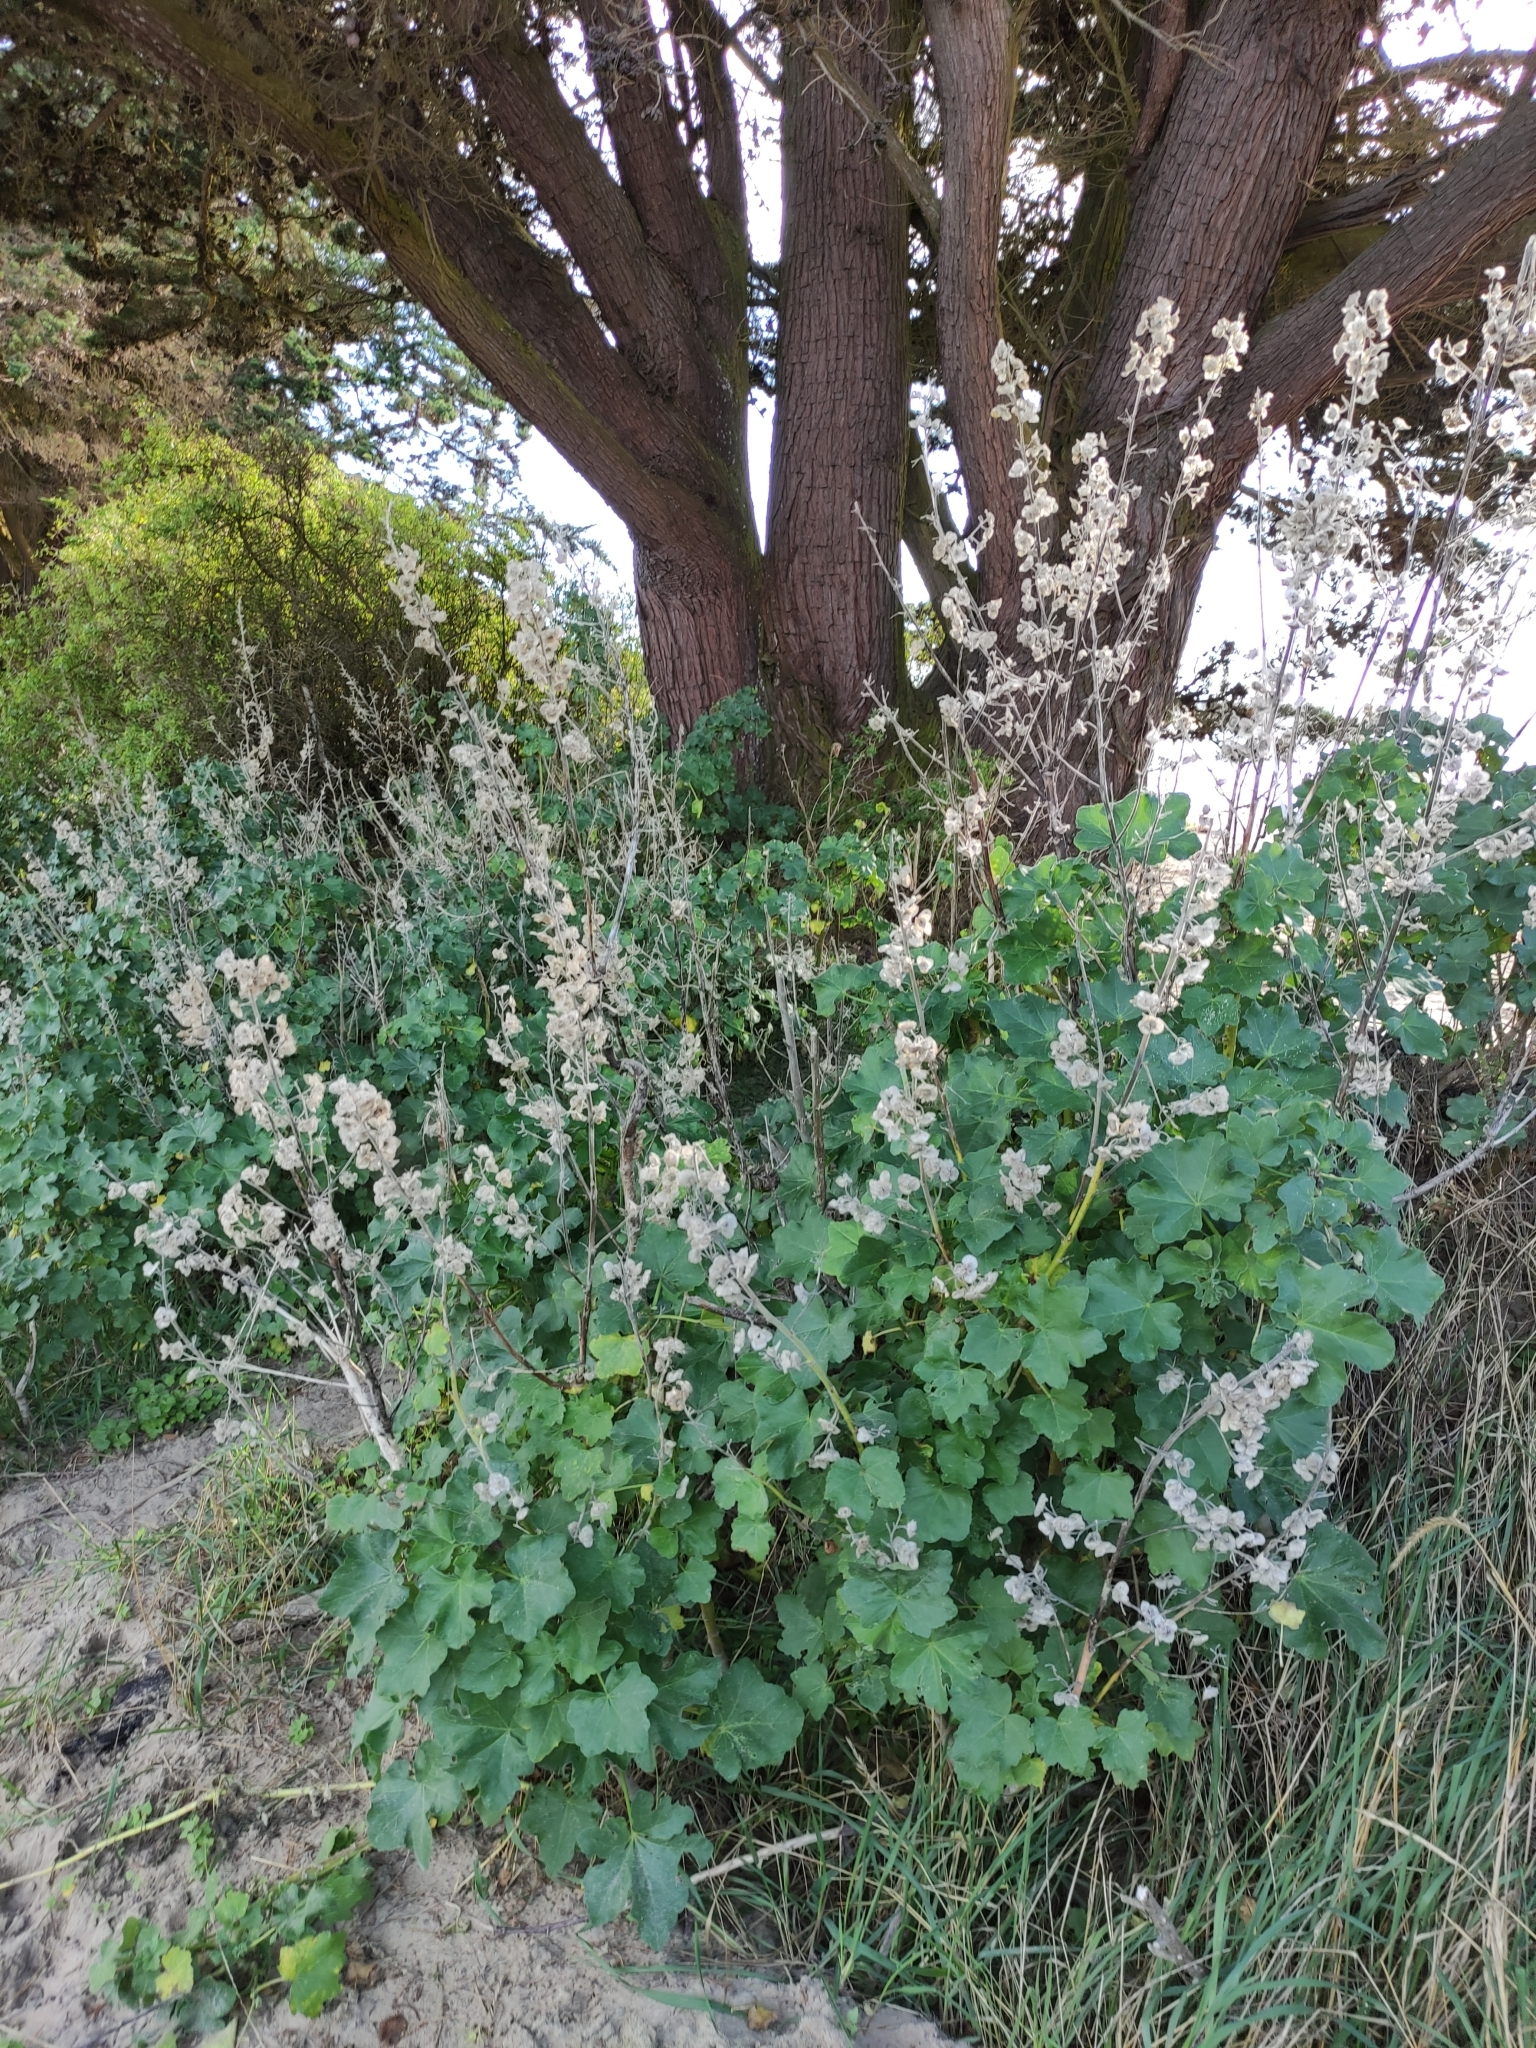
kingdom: Plantae
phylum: Tracheophyta
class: Magnoliopsida
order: Malvales
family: Malvaceae
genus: Malva
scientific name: Malva arborea
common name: Tree mallow
